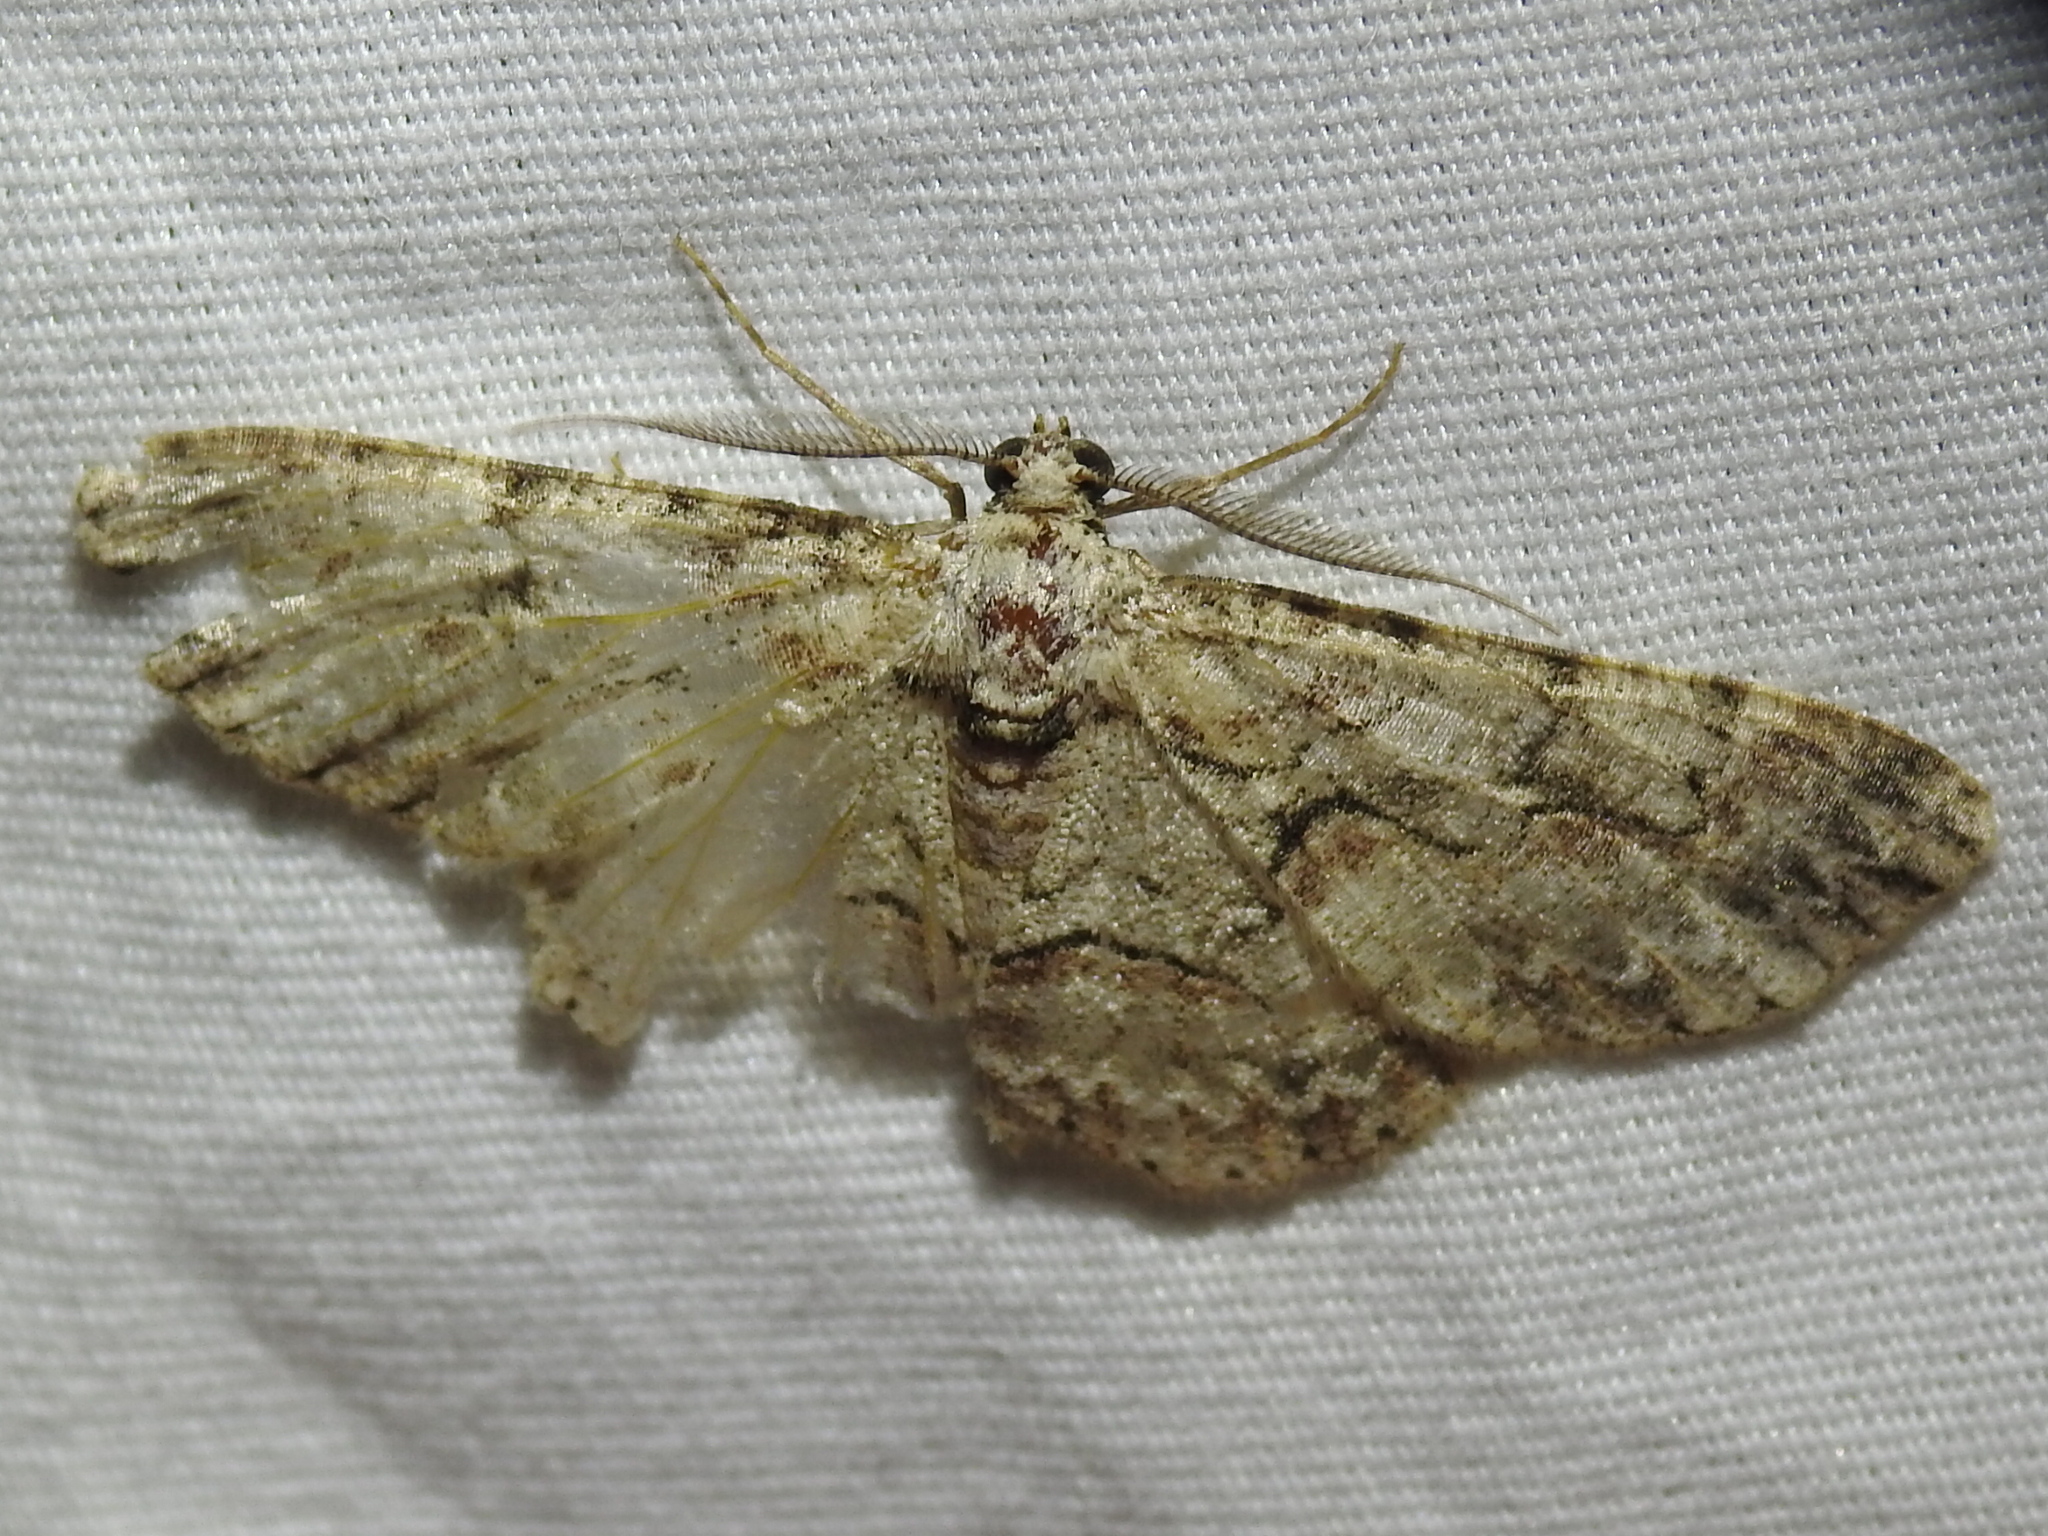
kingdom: Animalia
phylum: Arthropoda
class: Insecta
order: Lepidoptera
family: Geometridae
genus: Iridopsis
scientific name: Iridopsis defectaria
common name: Brown-shaded gray
